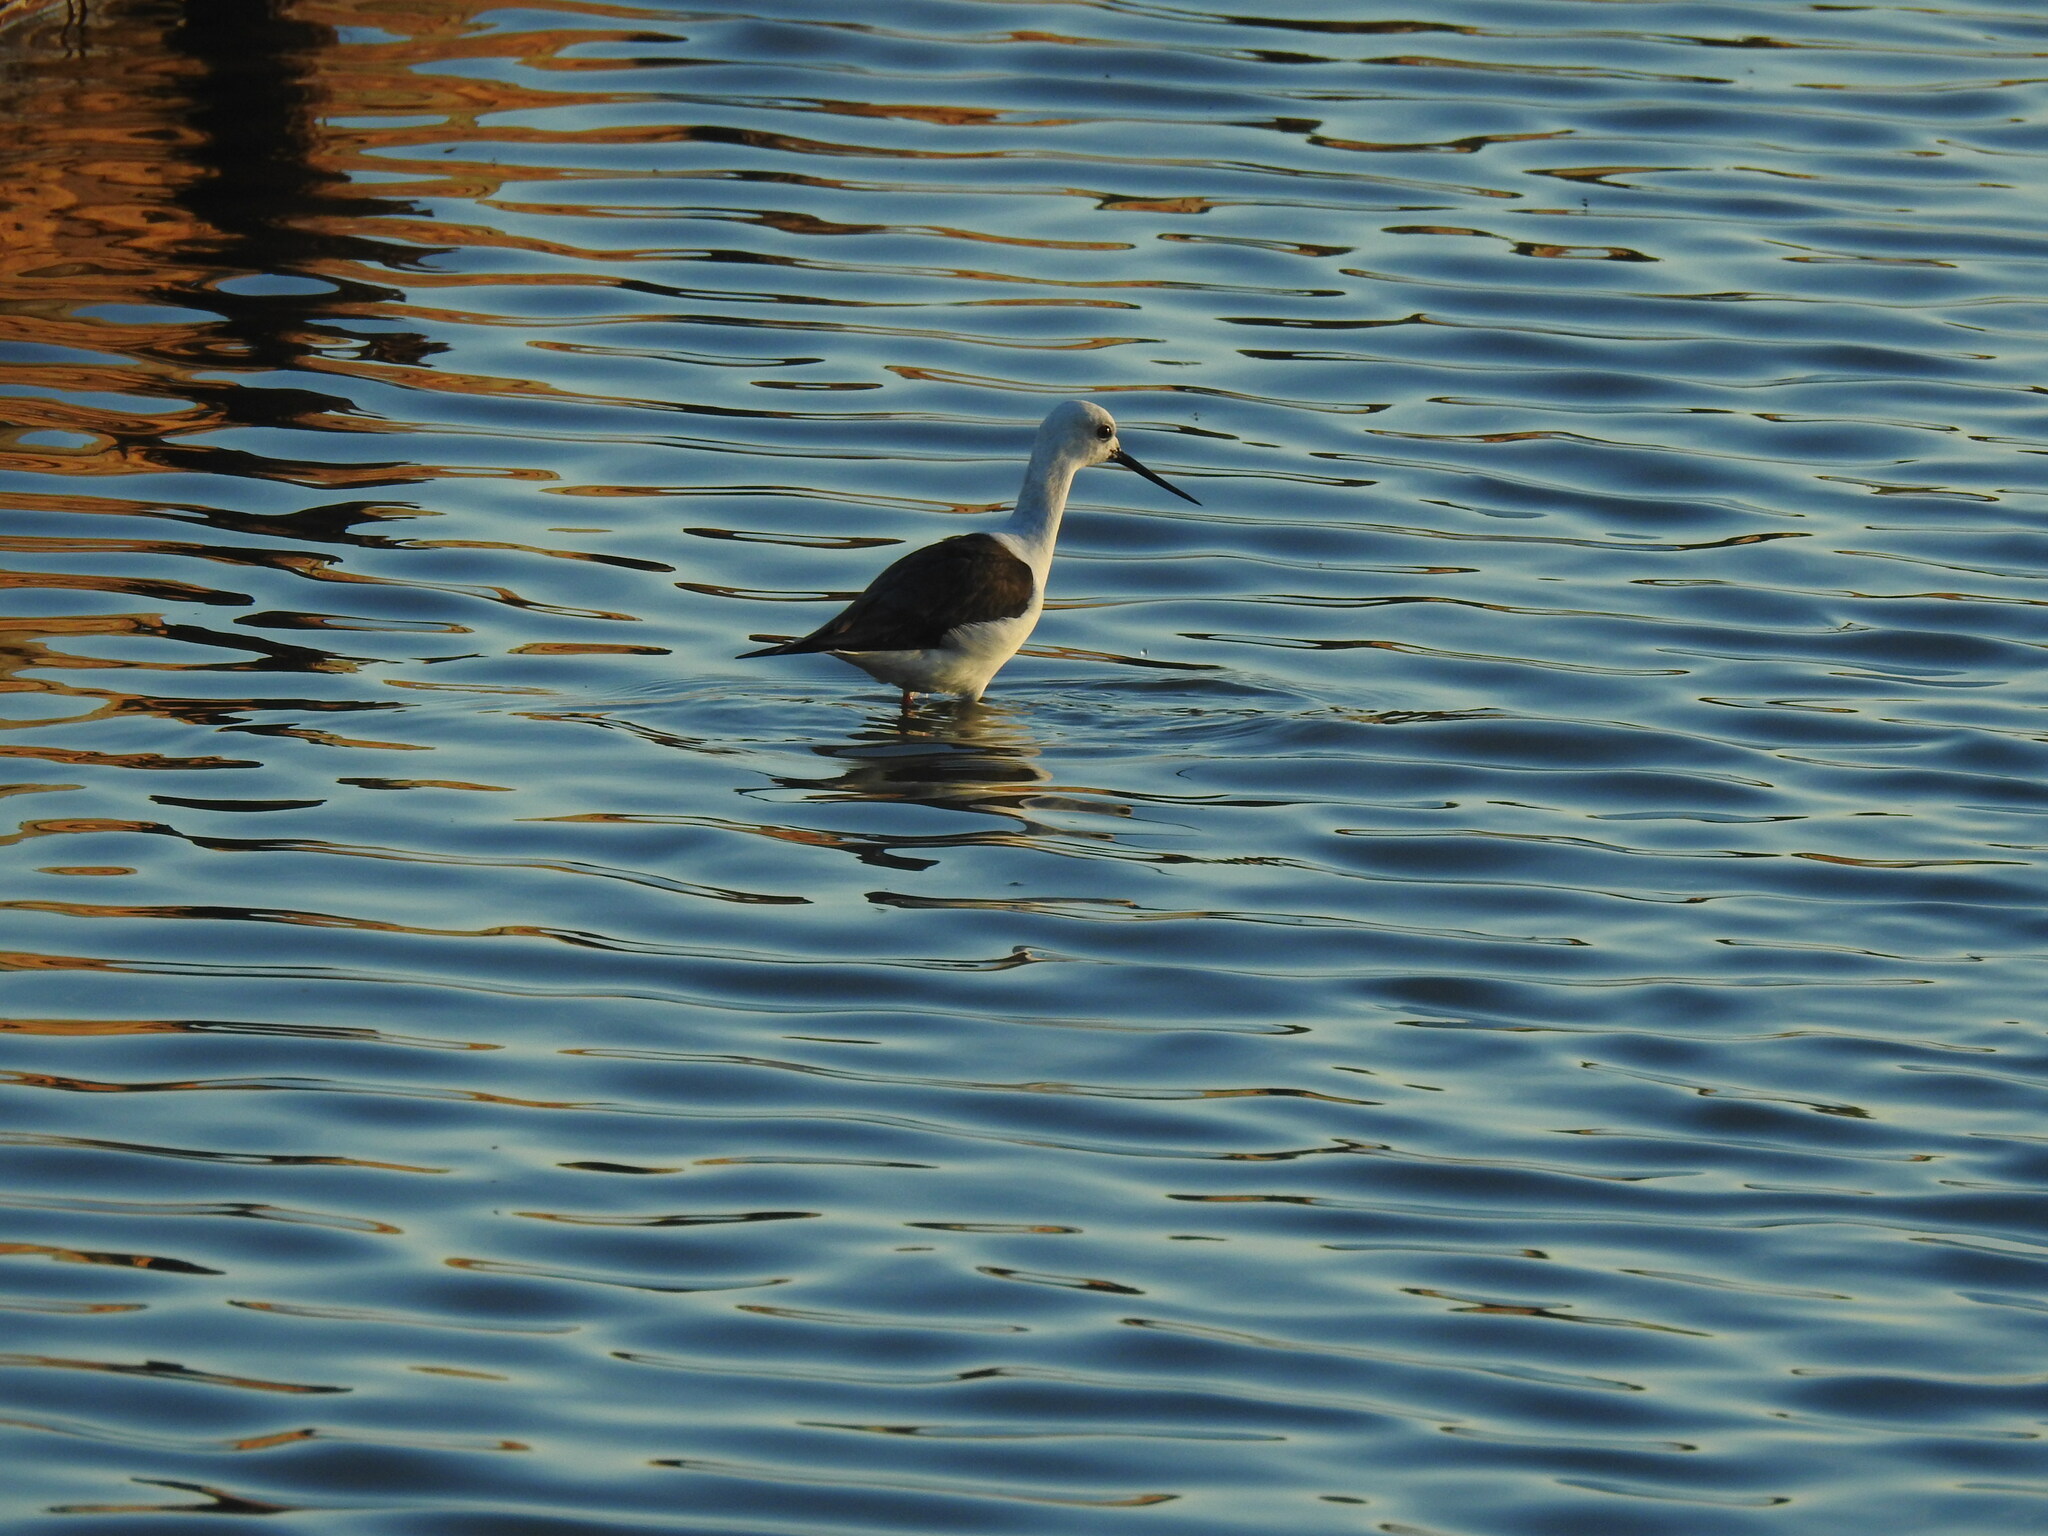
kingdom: Animalia
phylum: Chordata
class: Aves
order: Charadriiformes
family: Recurvirostridae
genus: Himantopus
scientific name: Himantopus himantopus
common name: Black-winged stilt
